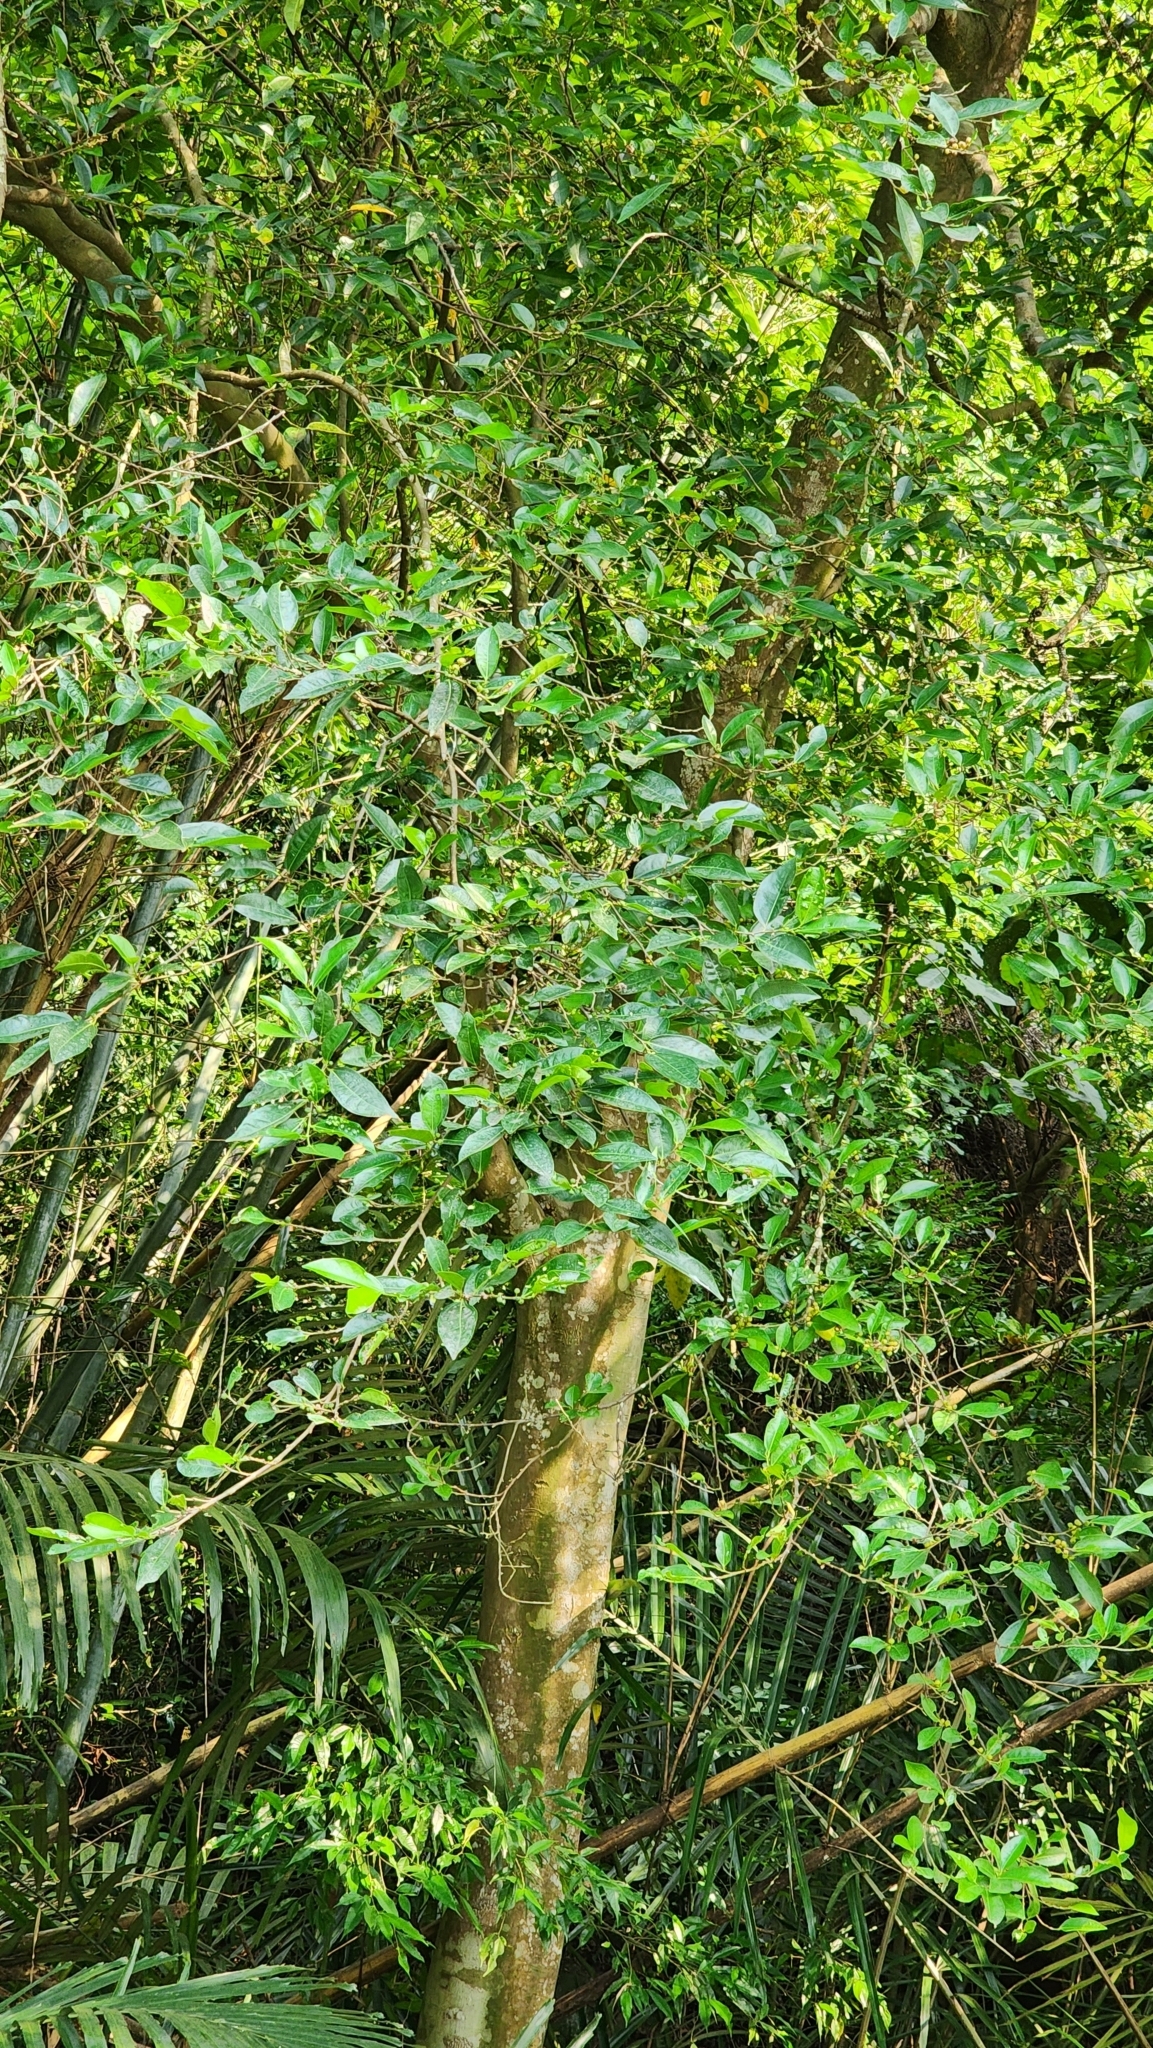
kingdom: Plantae
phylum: Tracheophyta
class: Magnoliopsida
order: Rosales
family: Moraceae
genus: Ficus
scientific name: Ficus ampelos
